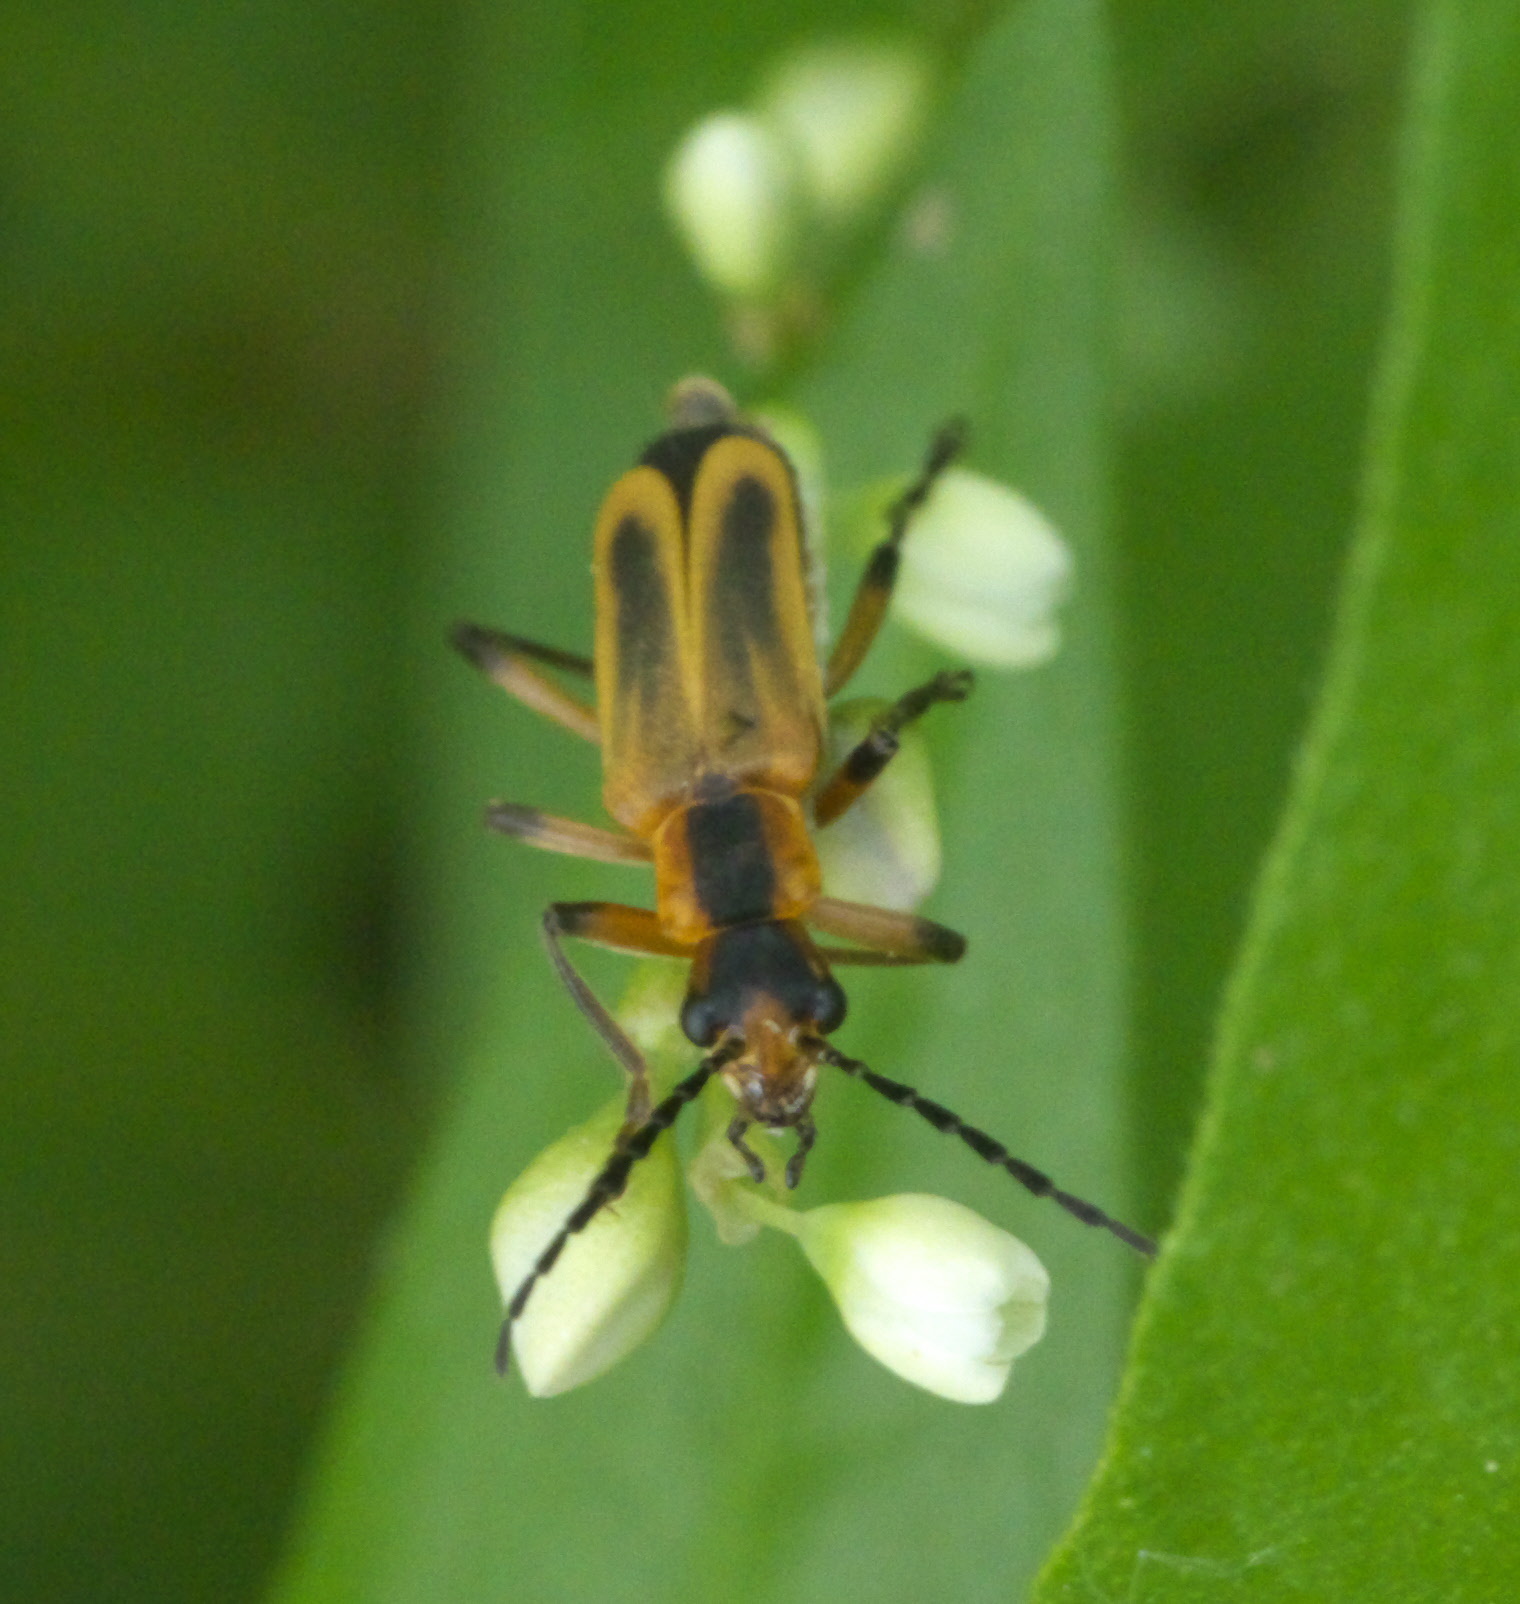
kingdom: Animalia
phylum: Arthropoda
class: Insecta
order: Coleoptera
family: Cantharidae
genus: Chauliognathus
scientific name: Chauliognathus marginatus
